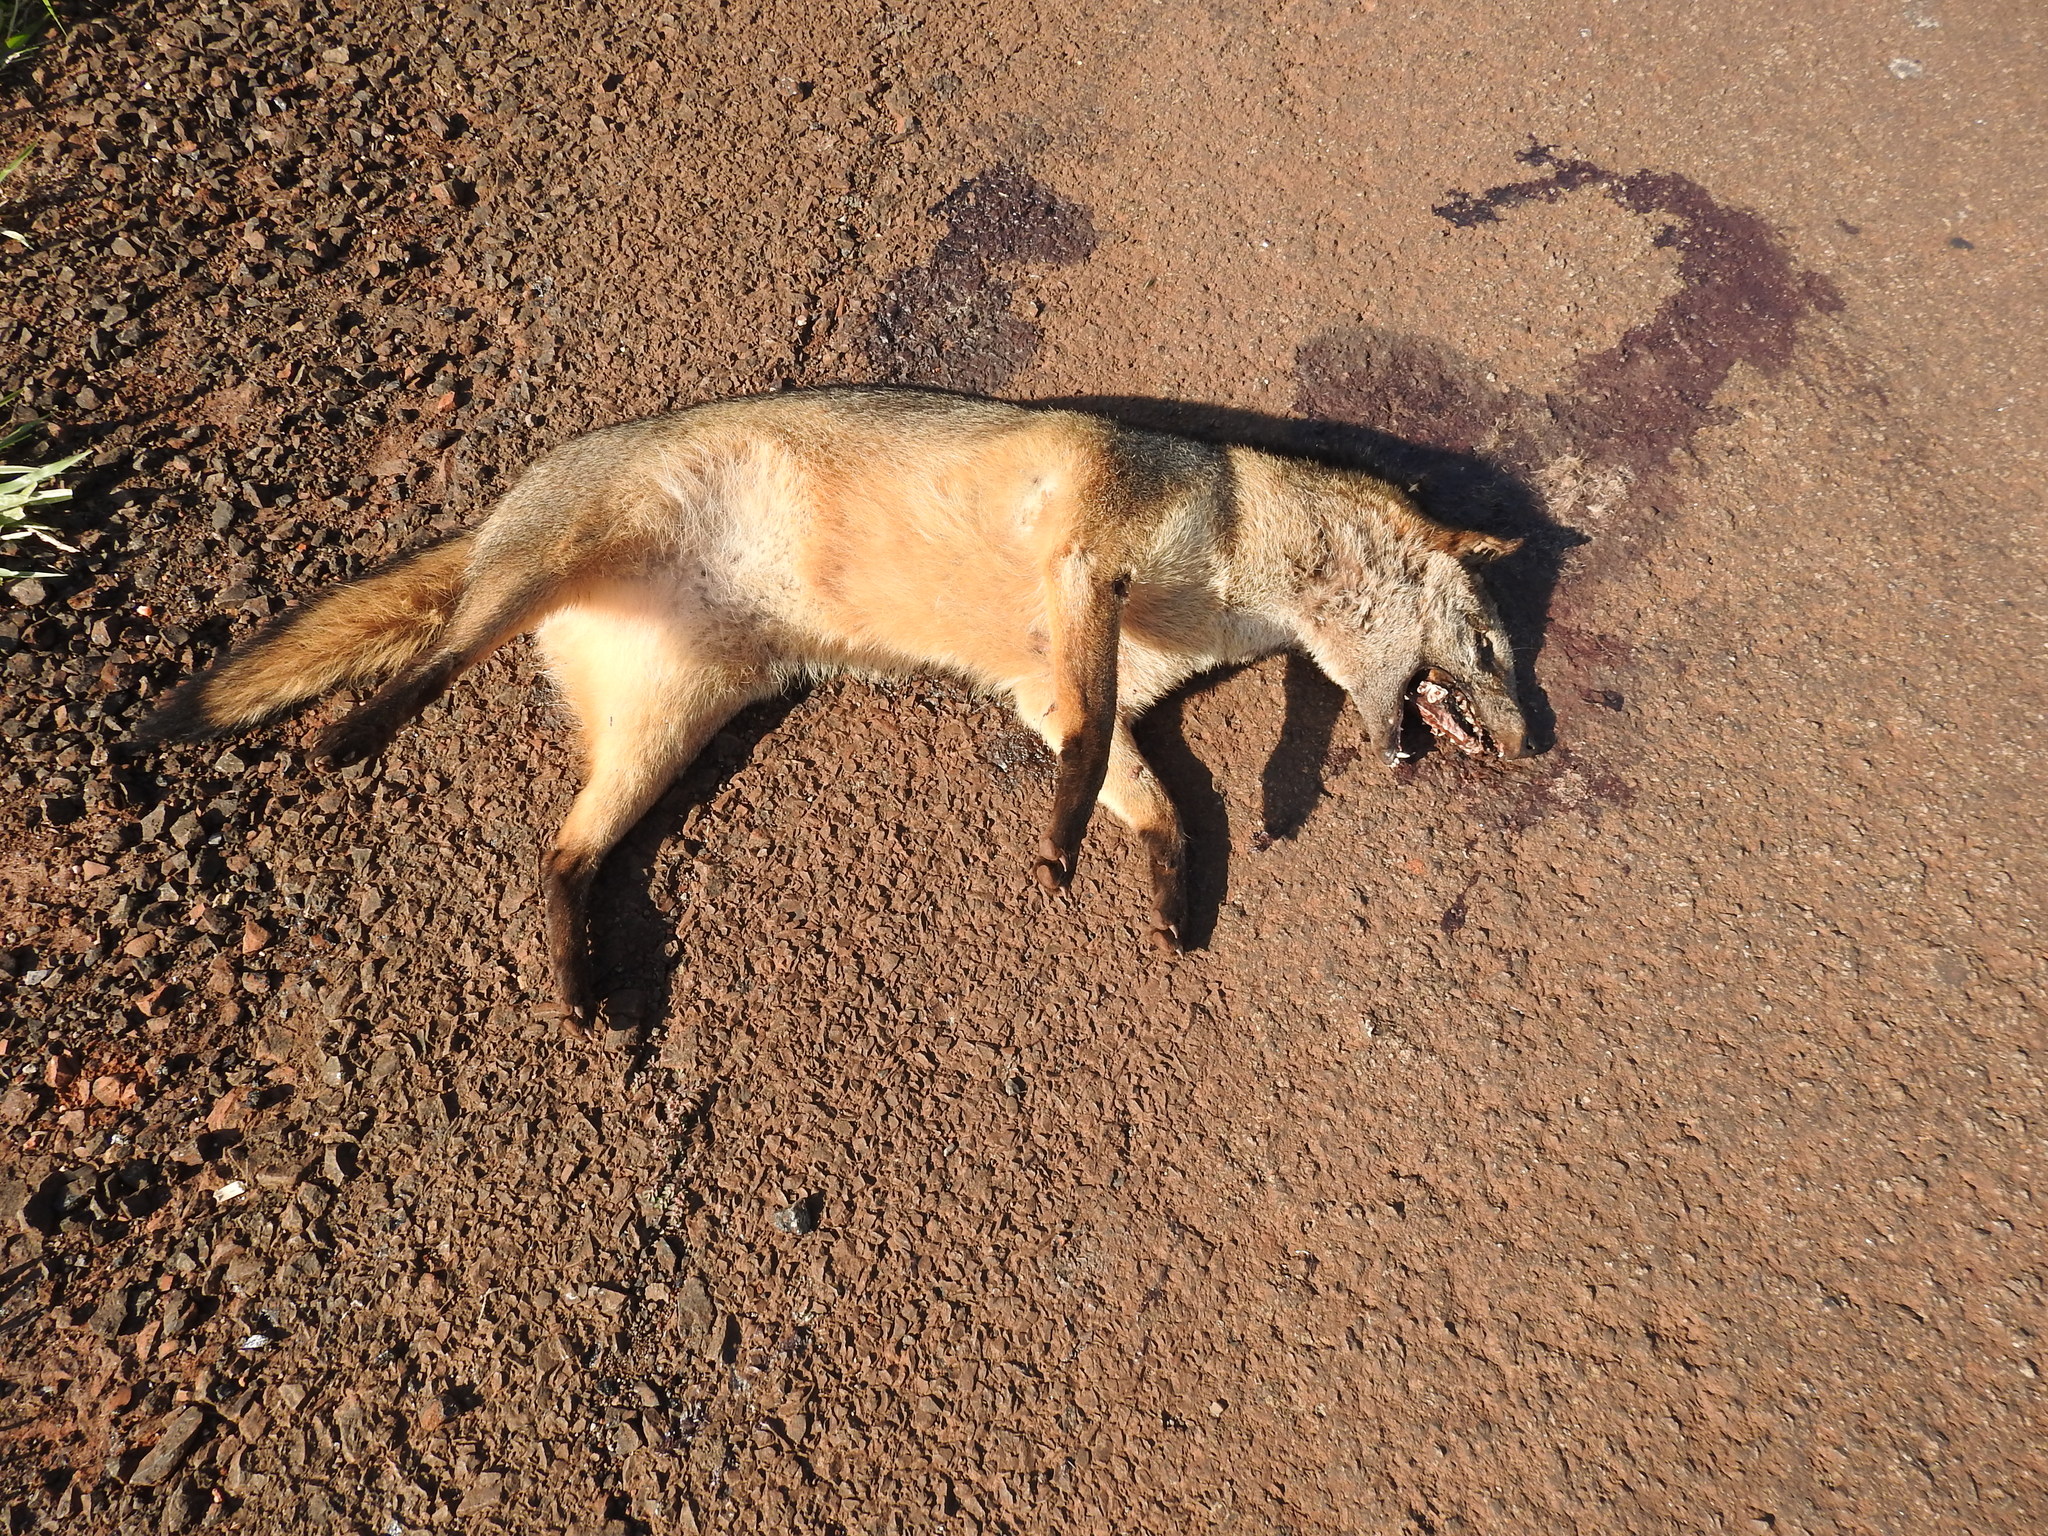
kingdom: Animalia
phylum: Chordata
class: Mammalia
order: Carnivora
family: Canidae
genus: Cerdocyon
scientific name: Cerdocyon thous
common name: Crab-eating fox
